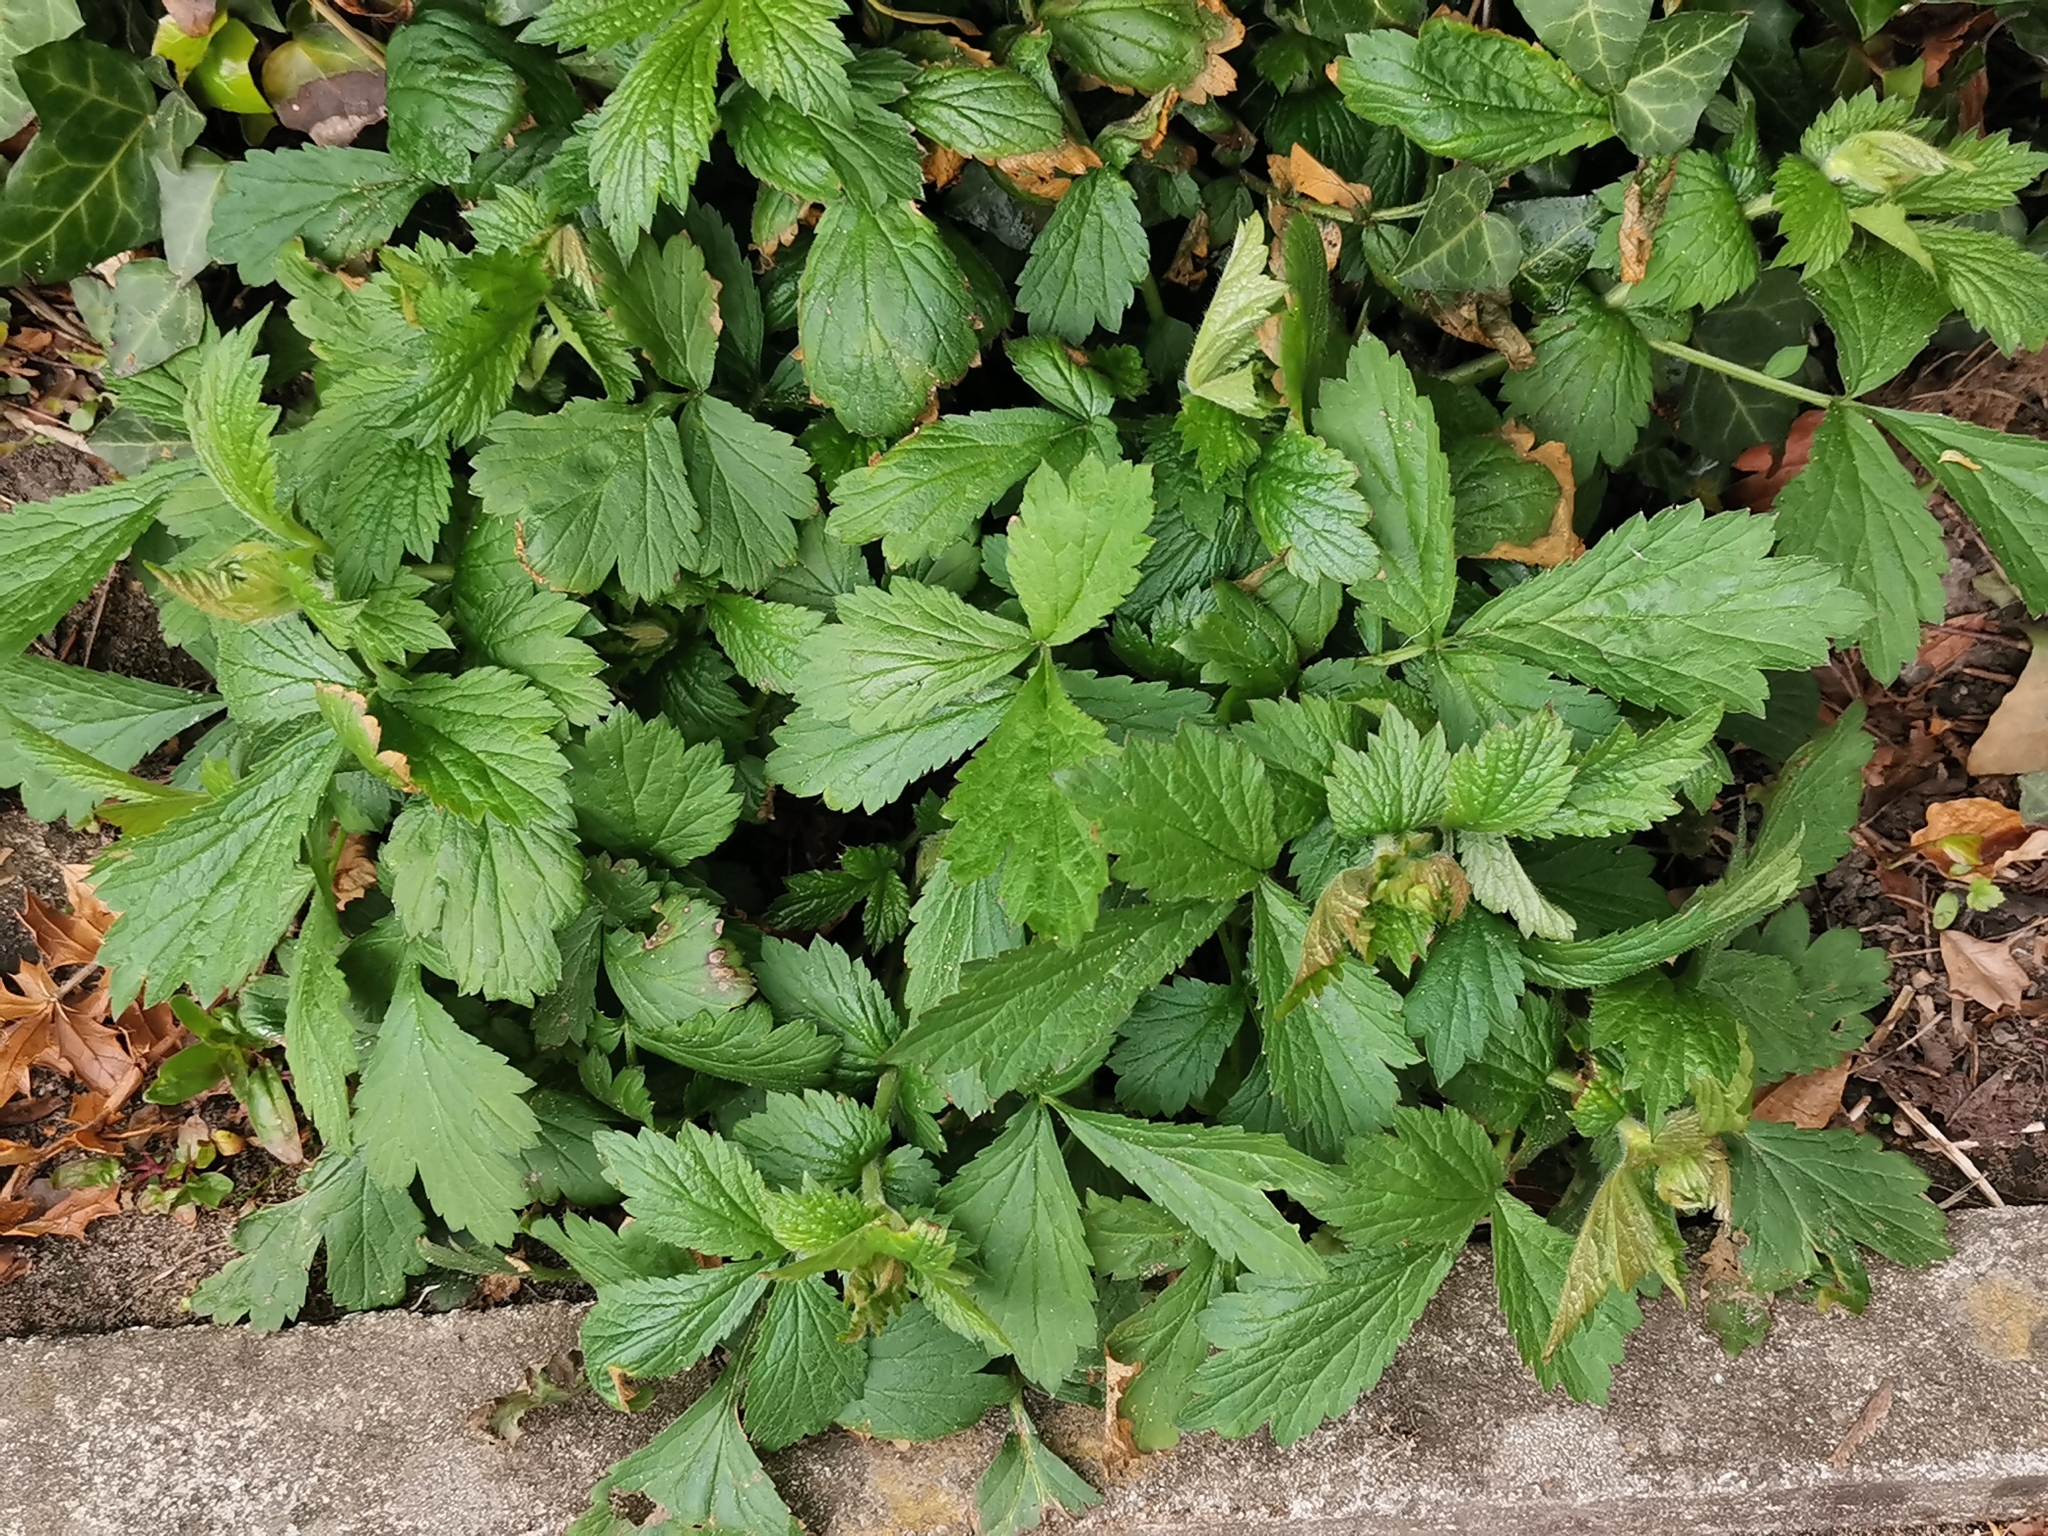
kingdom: Plantae
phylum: Tracheophyta
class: Magnoliopsida
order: Rosales
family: Rosaceae
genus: Geum
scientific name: Geum urbanum
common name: Wood avens
